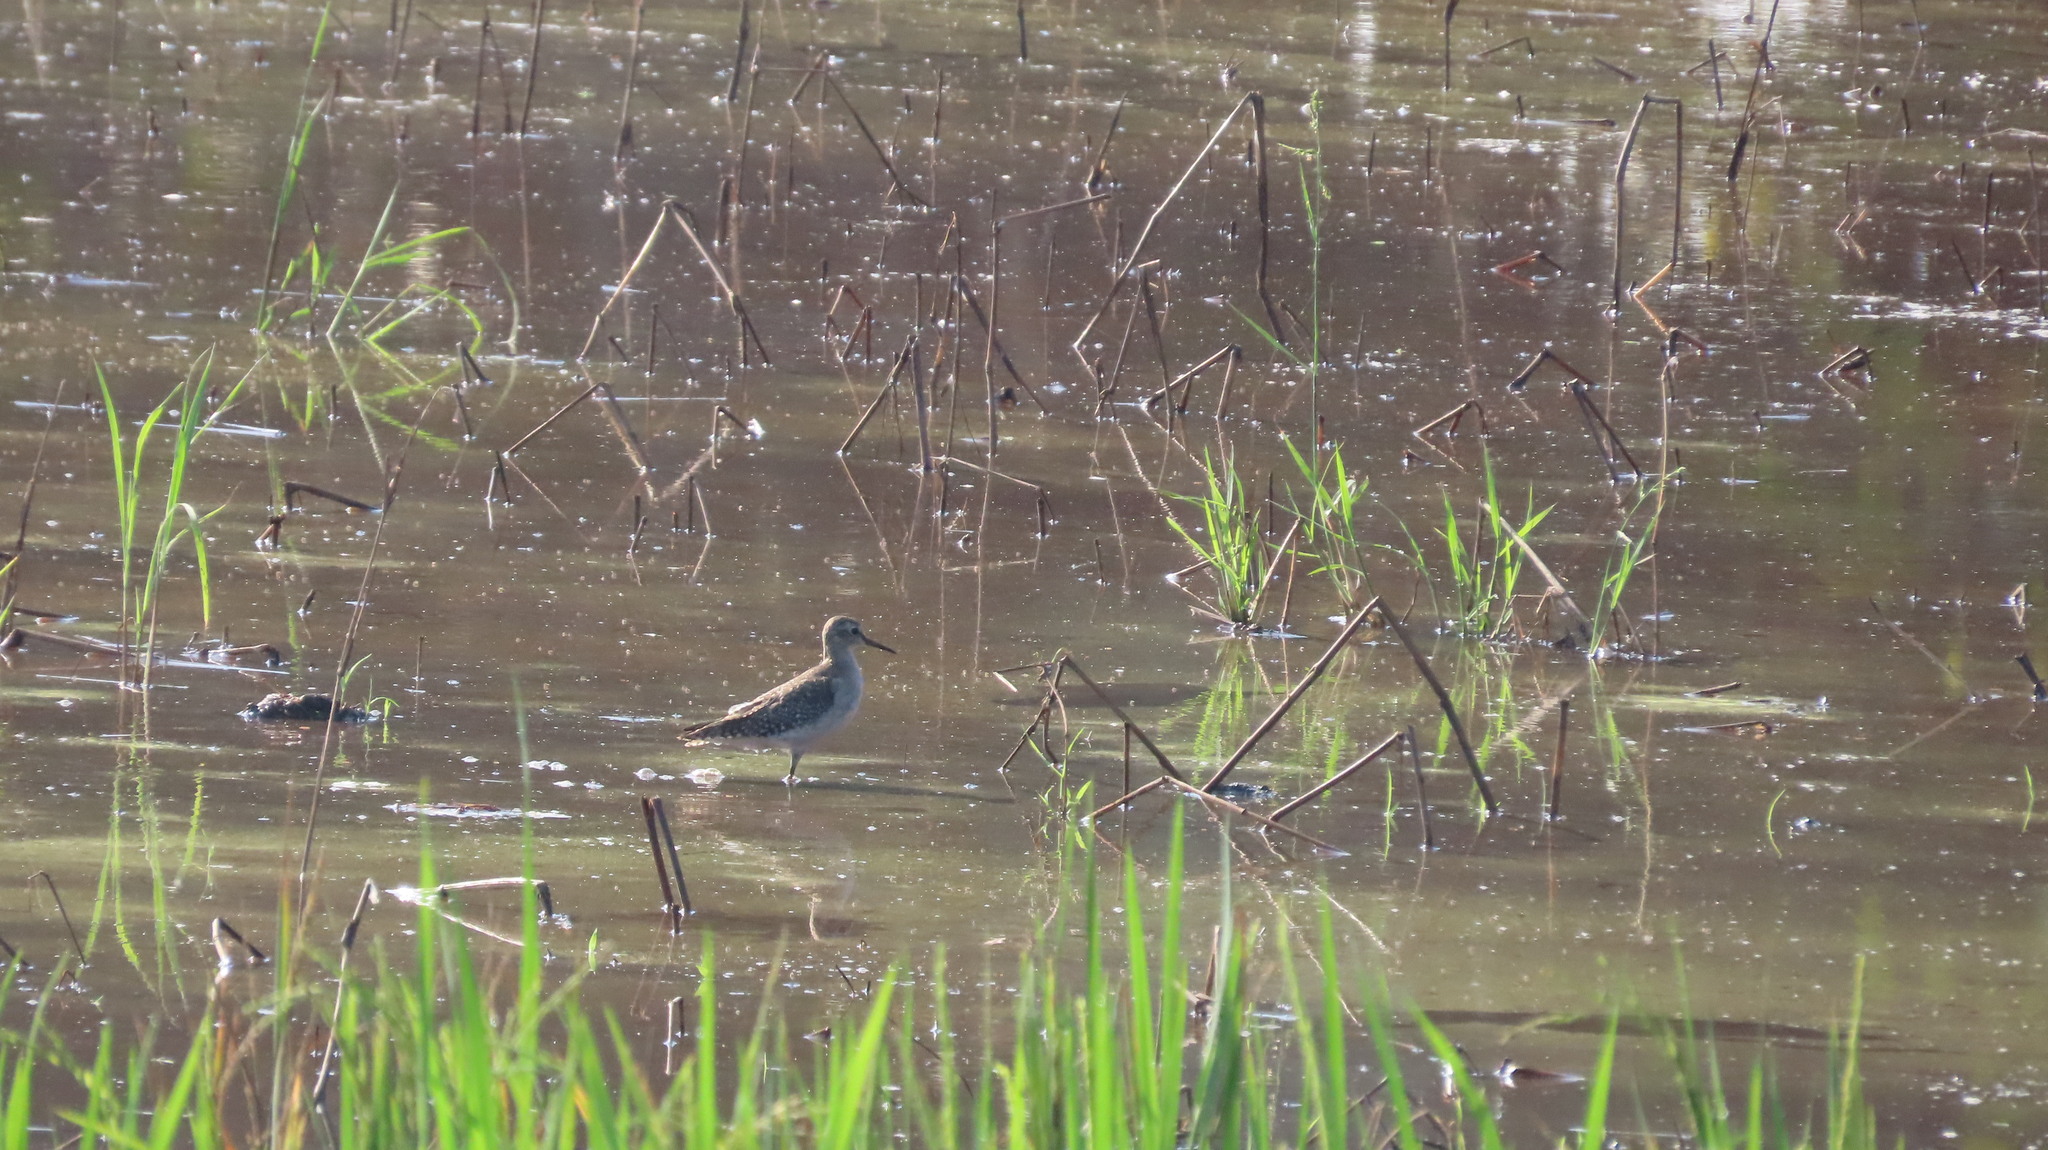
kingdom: Animalia
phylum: Chordata
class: Aves
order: Charadriiformes
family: Scolopacidae
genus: Tringa
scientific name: Tringa glareola
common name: Wood sandpiper
